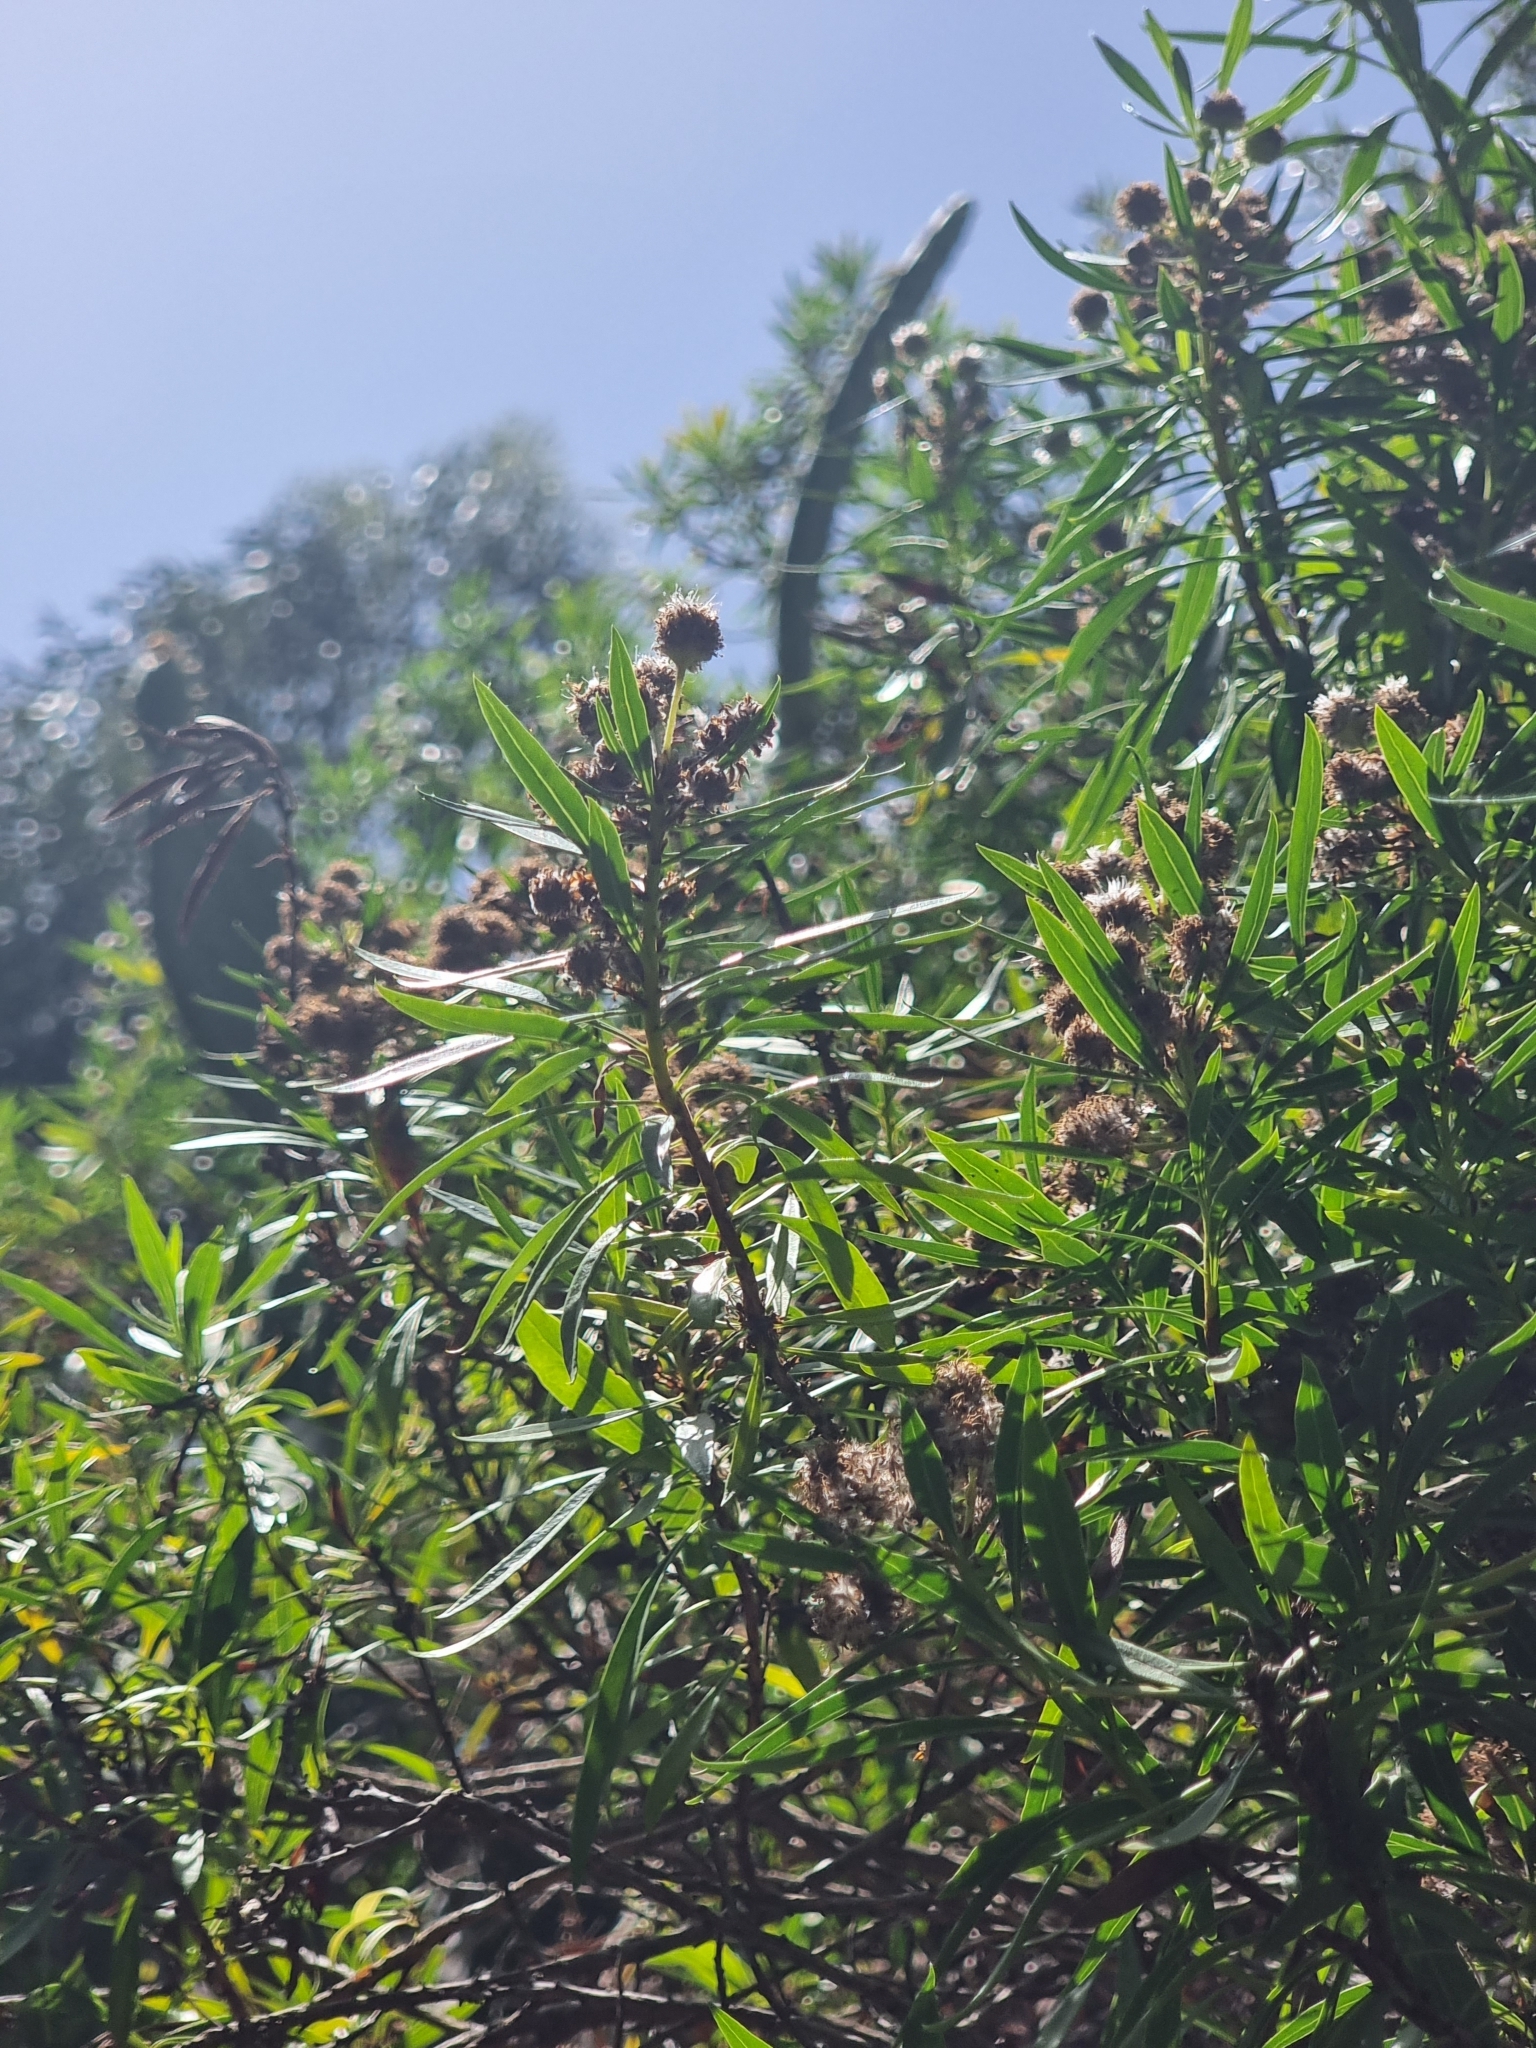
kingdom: Plantae
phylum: Tracheophyta
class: Magnoliopsida
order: Lamiales
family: Plantaginaceae
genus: Globularia
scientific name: Globularia salicina
